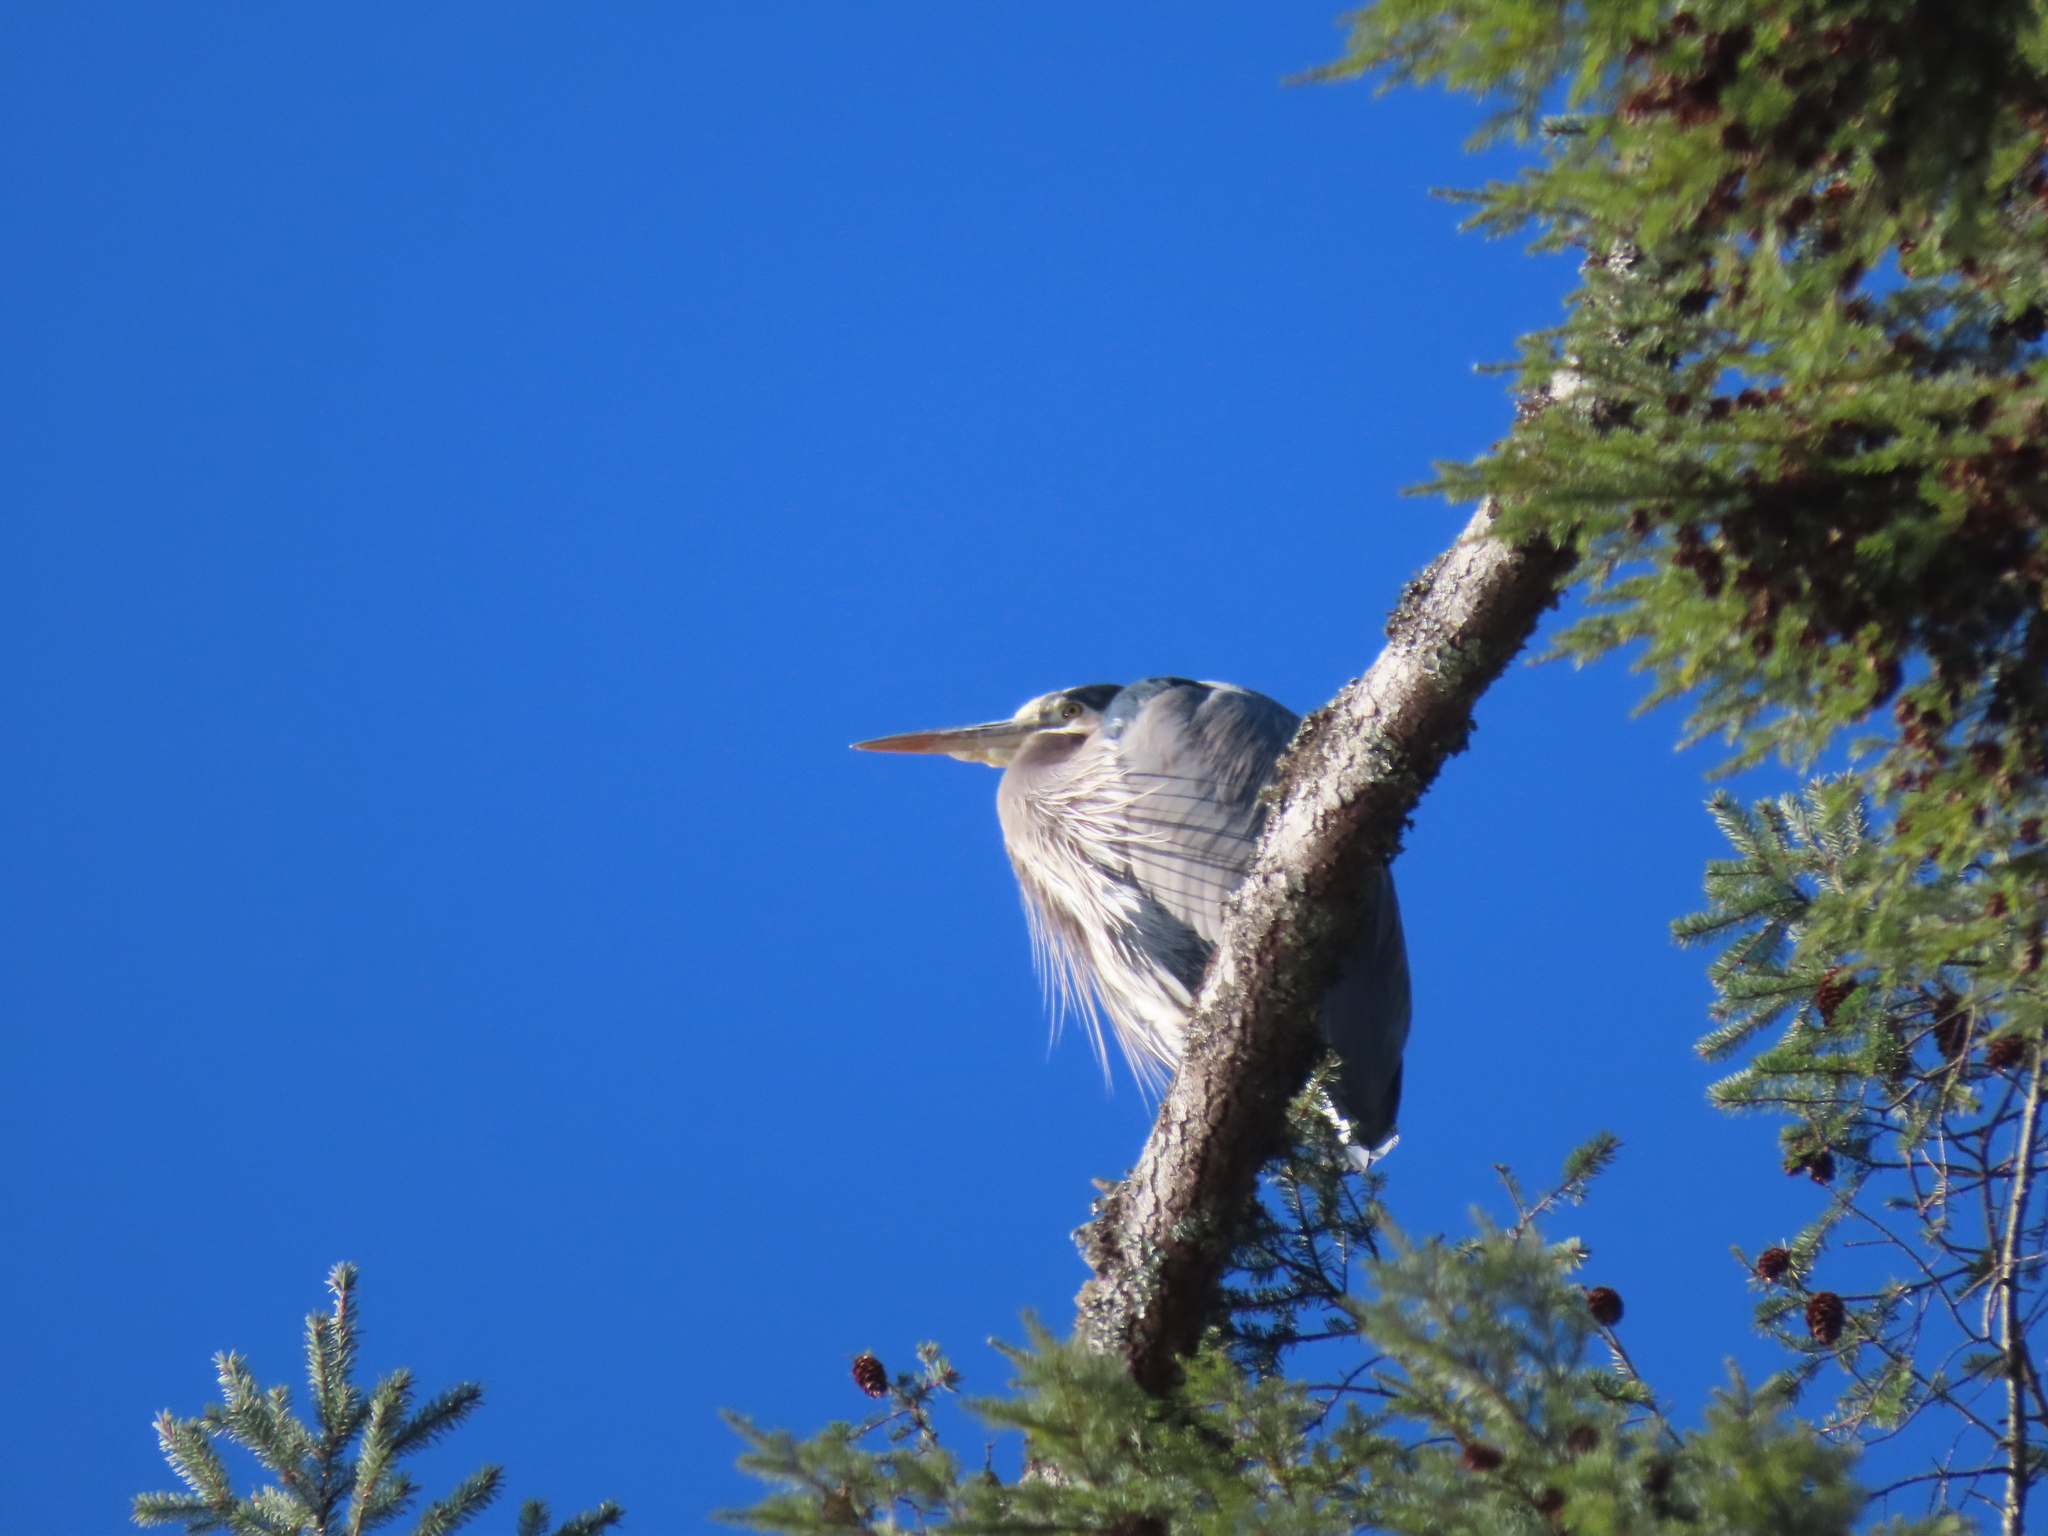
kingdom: Animalia
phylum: Chordata
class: Aves
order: Pelecaniformes
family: Ardeidae
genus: Ardea
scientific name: Ardea herodias
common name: Great blue heron
